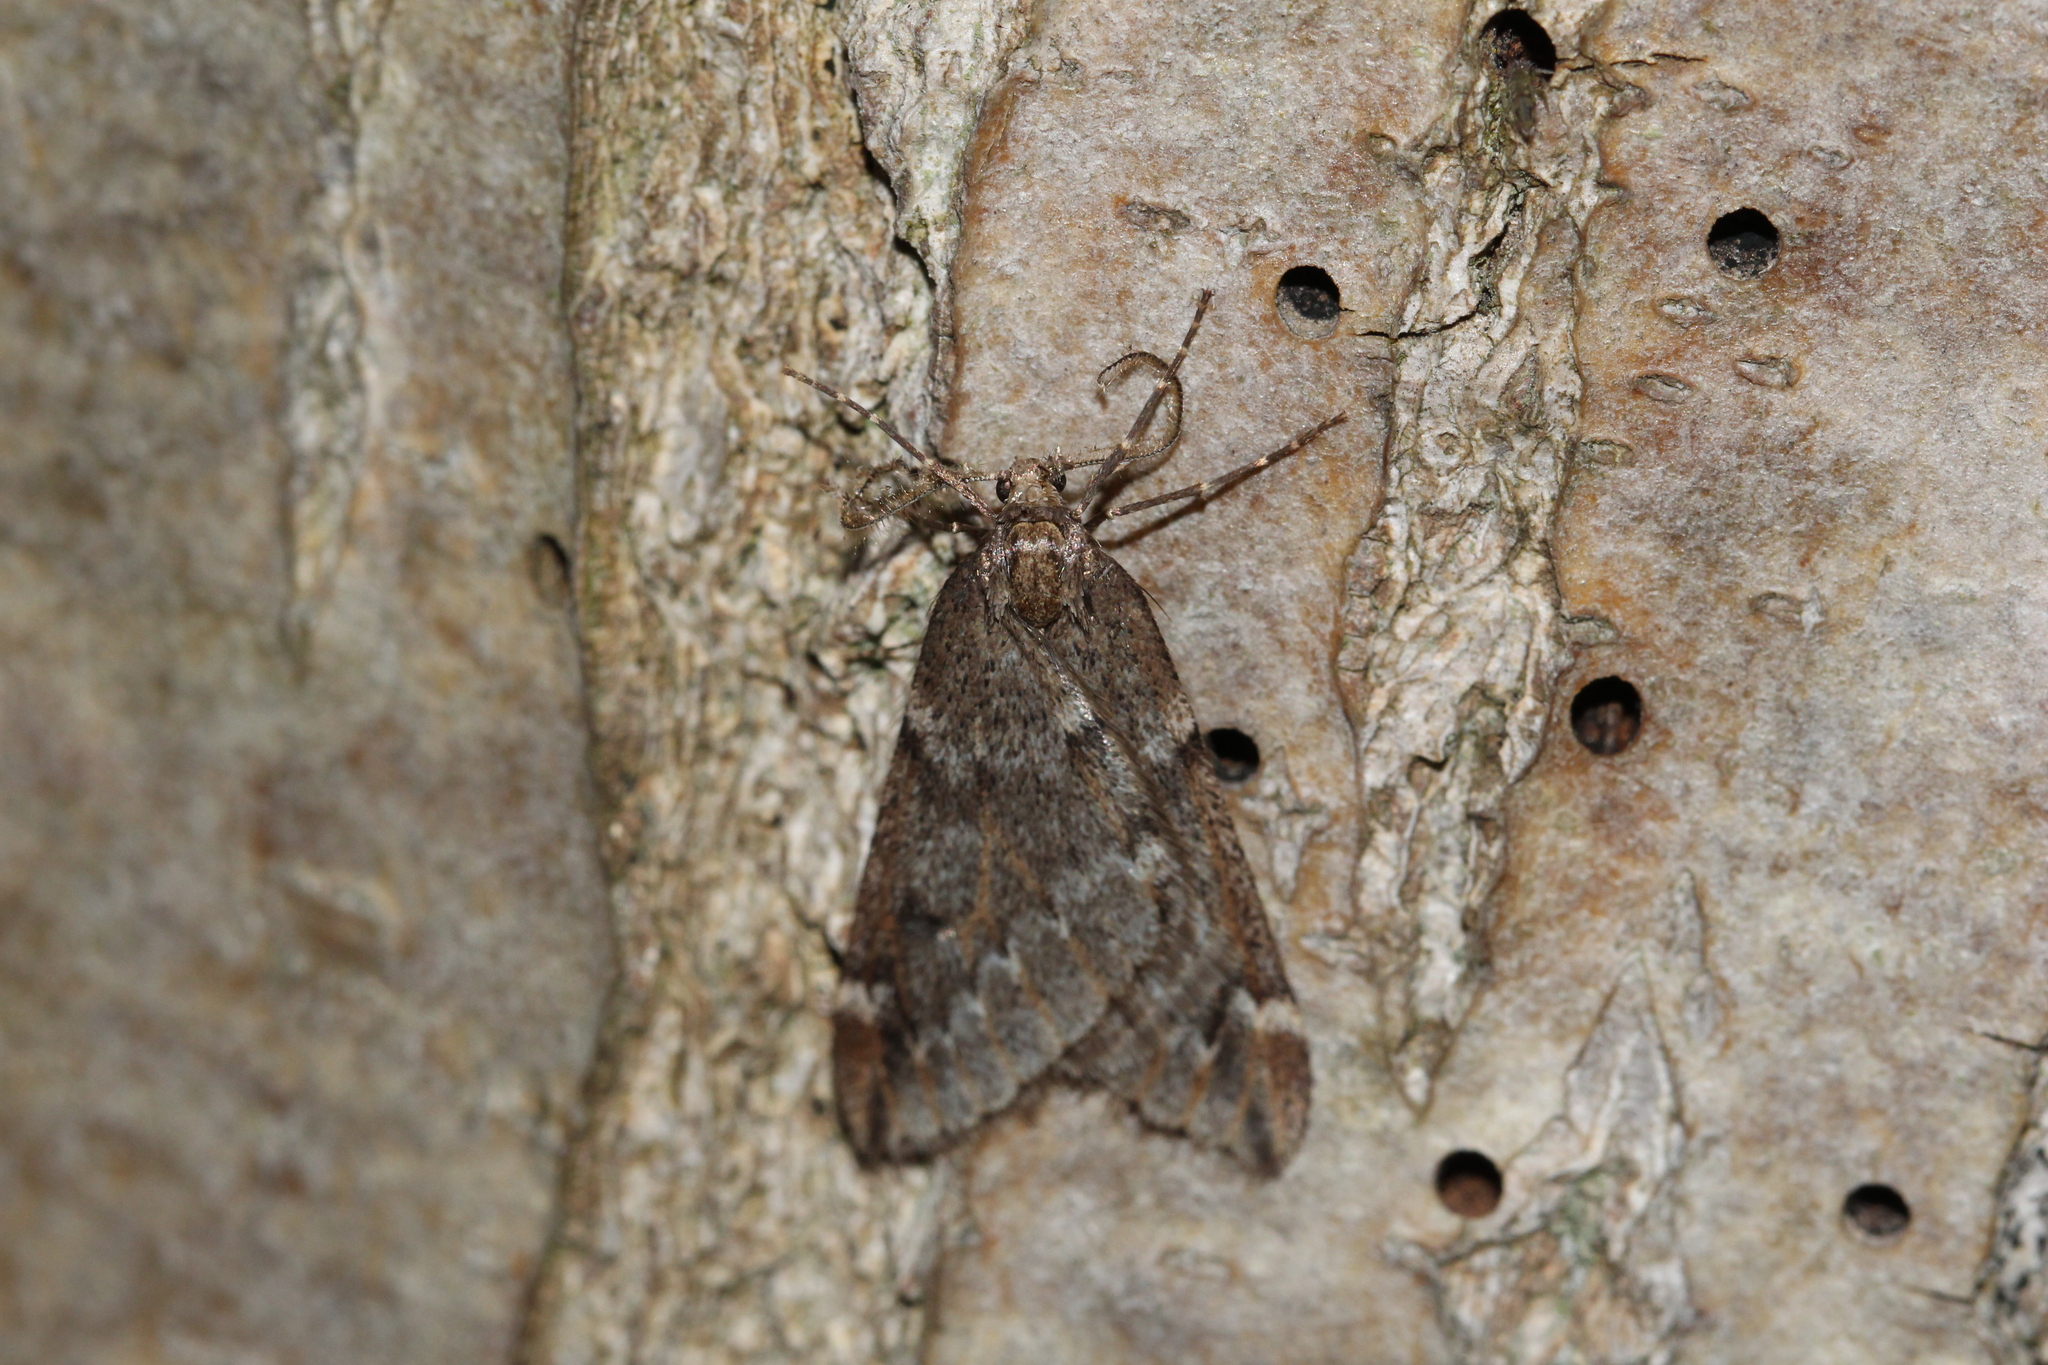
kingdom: Animalia
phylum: Arthropoda
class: Insecta
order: Lepidoptera
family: Geometridae
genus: Alsophila
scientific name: Alsophila aescularia
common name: March moth
